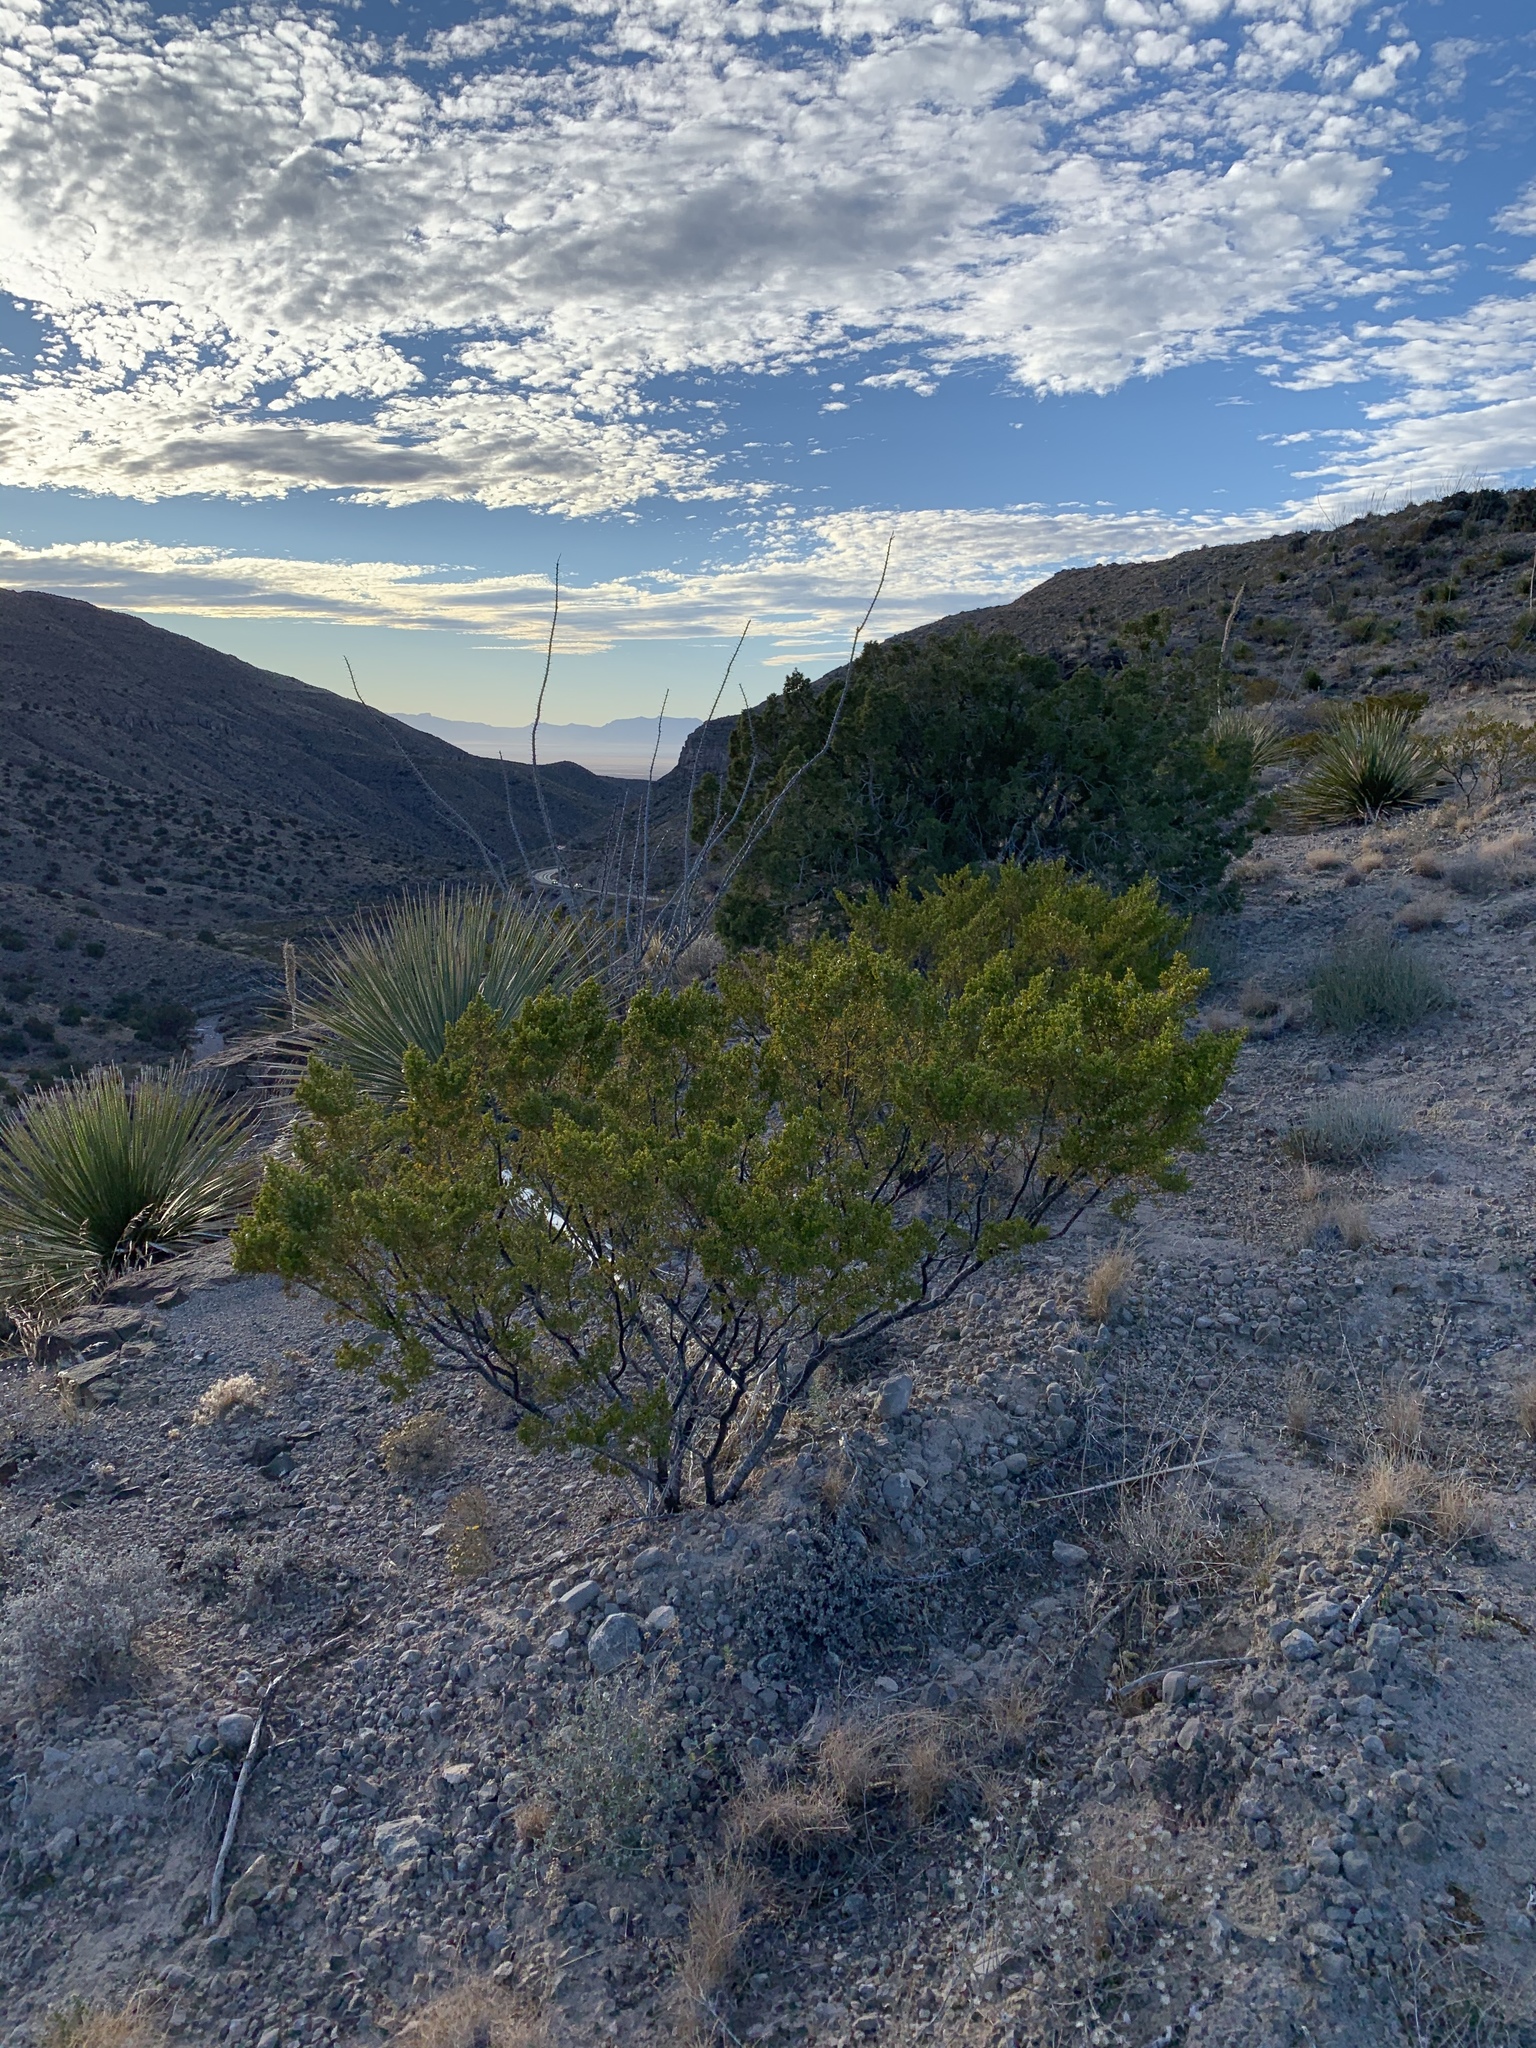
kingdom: Plantae
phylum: Tracheophyta
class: Magnoliopsida
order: Zygophyllales
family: Zygophyllaceae
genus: Larrea
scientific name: Larrea tridentata
